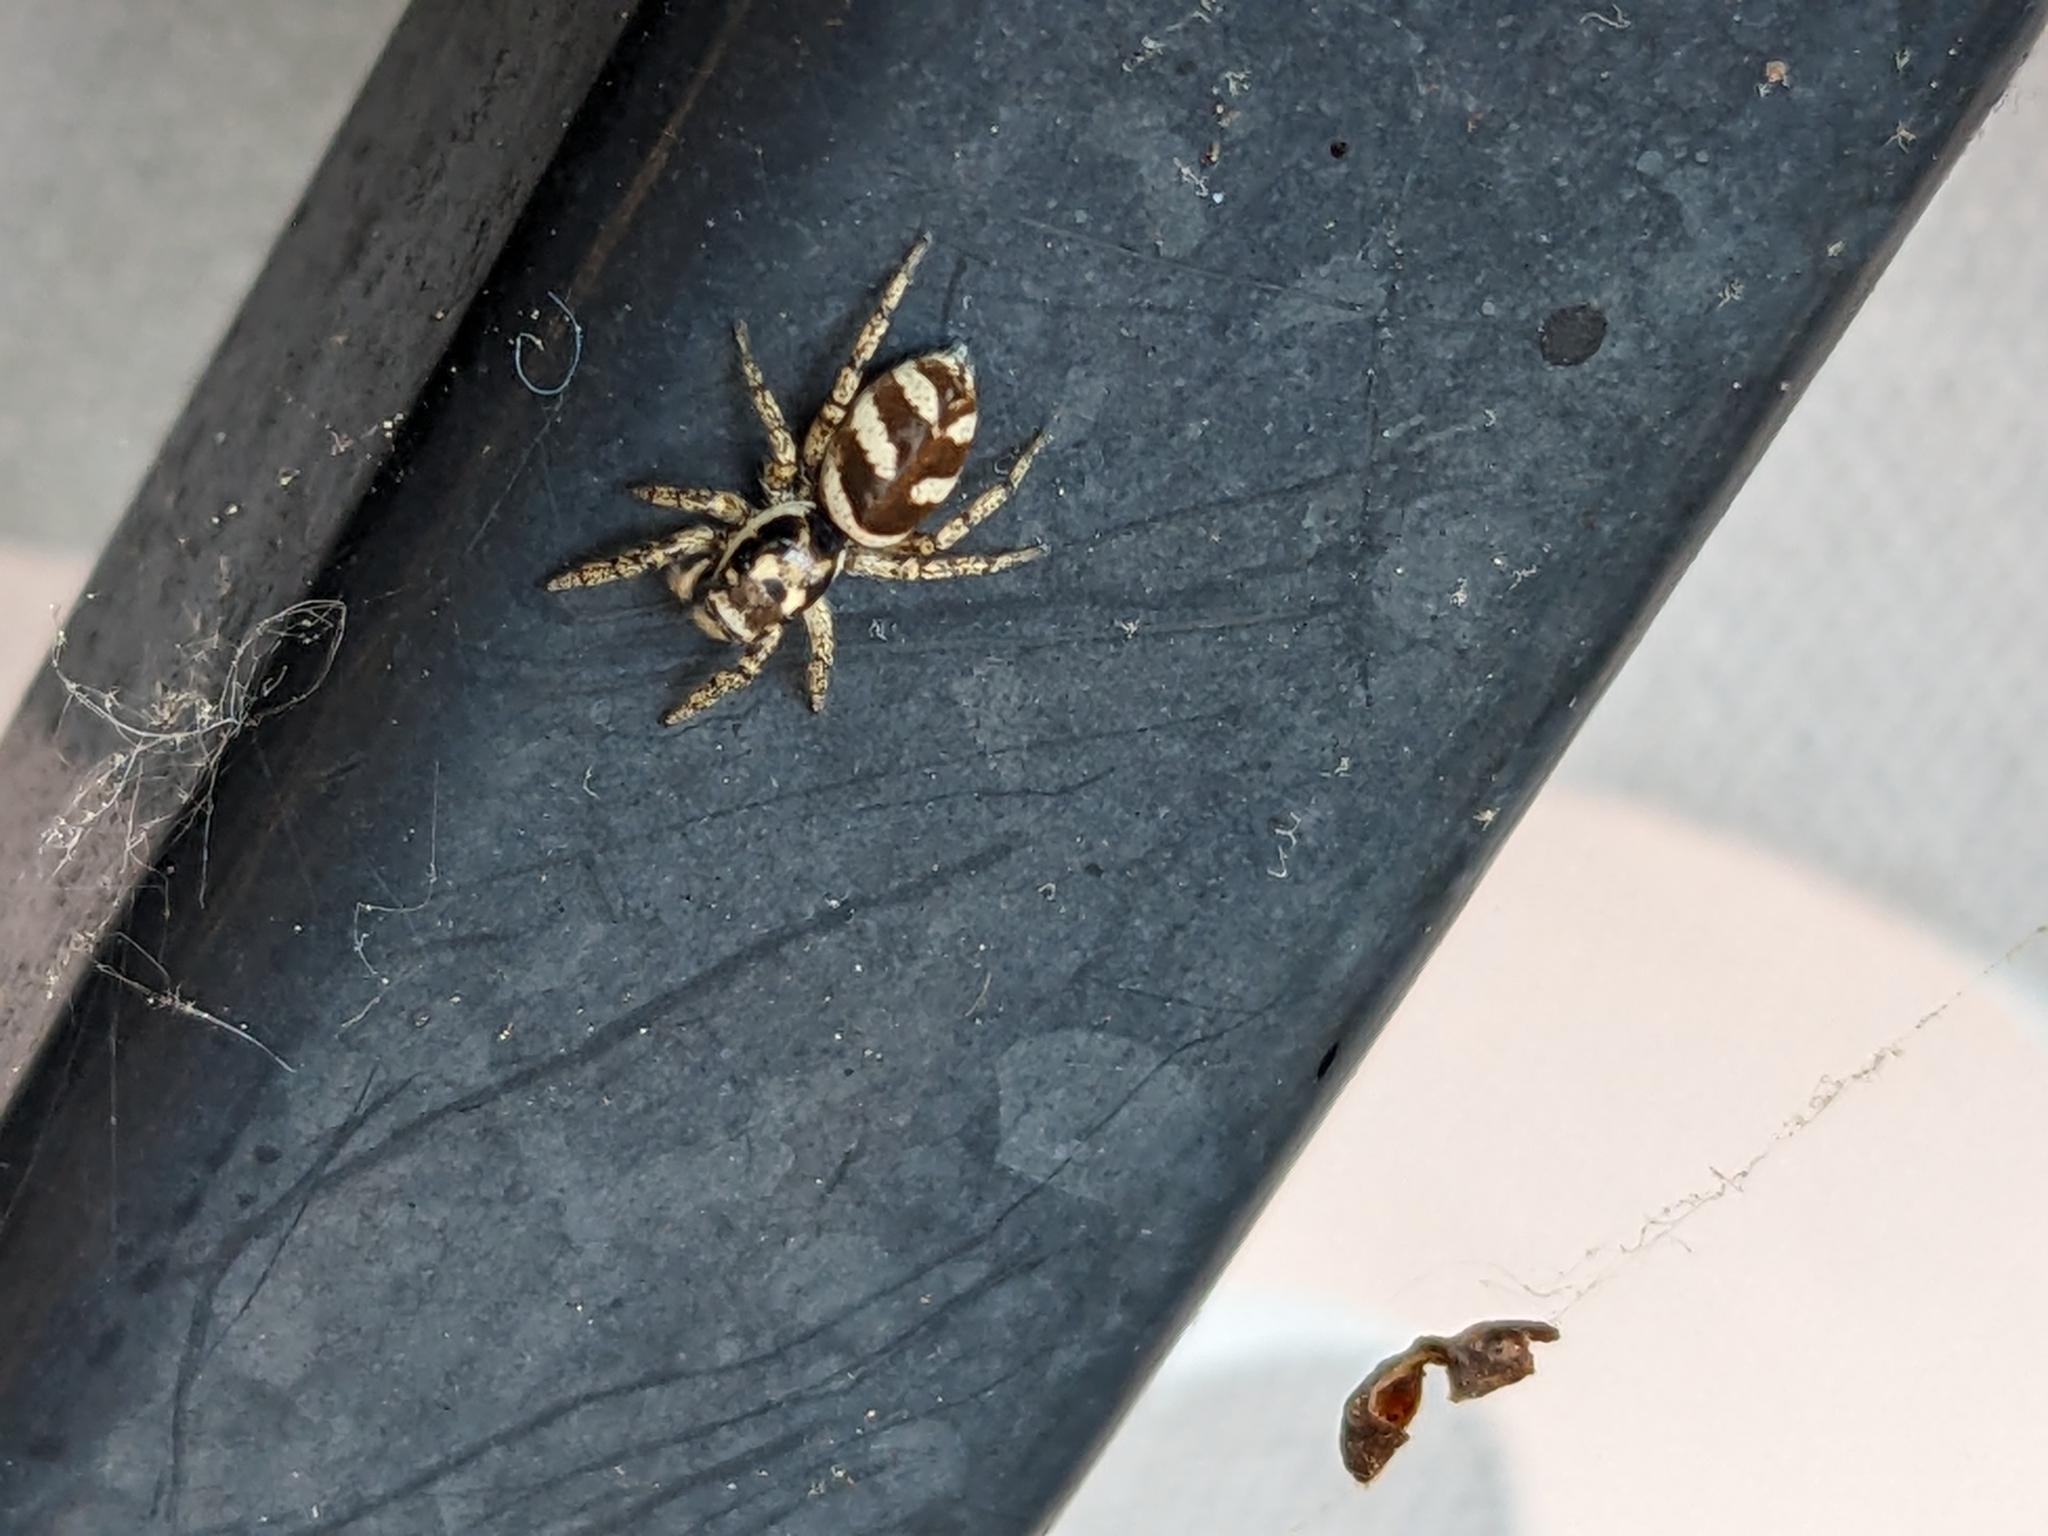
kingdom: Animalia
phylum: Arthropoda
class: Arachnida
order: Araneae
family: Salticidae
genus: Salticus
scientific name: Salticus scenicus
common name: Zebra jumper
